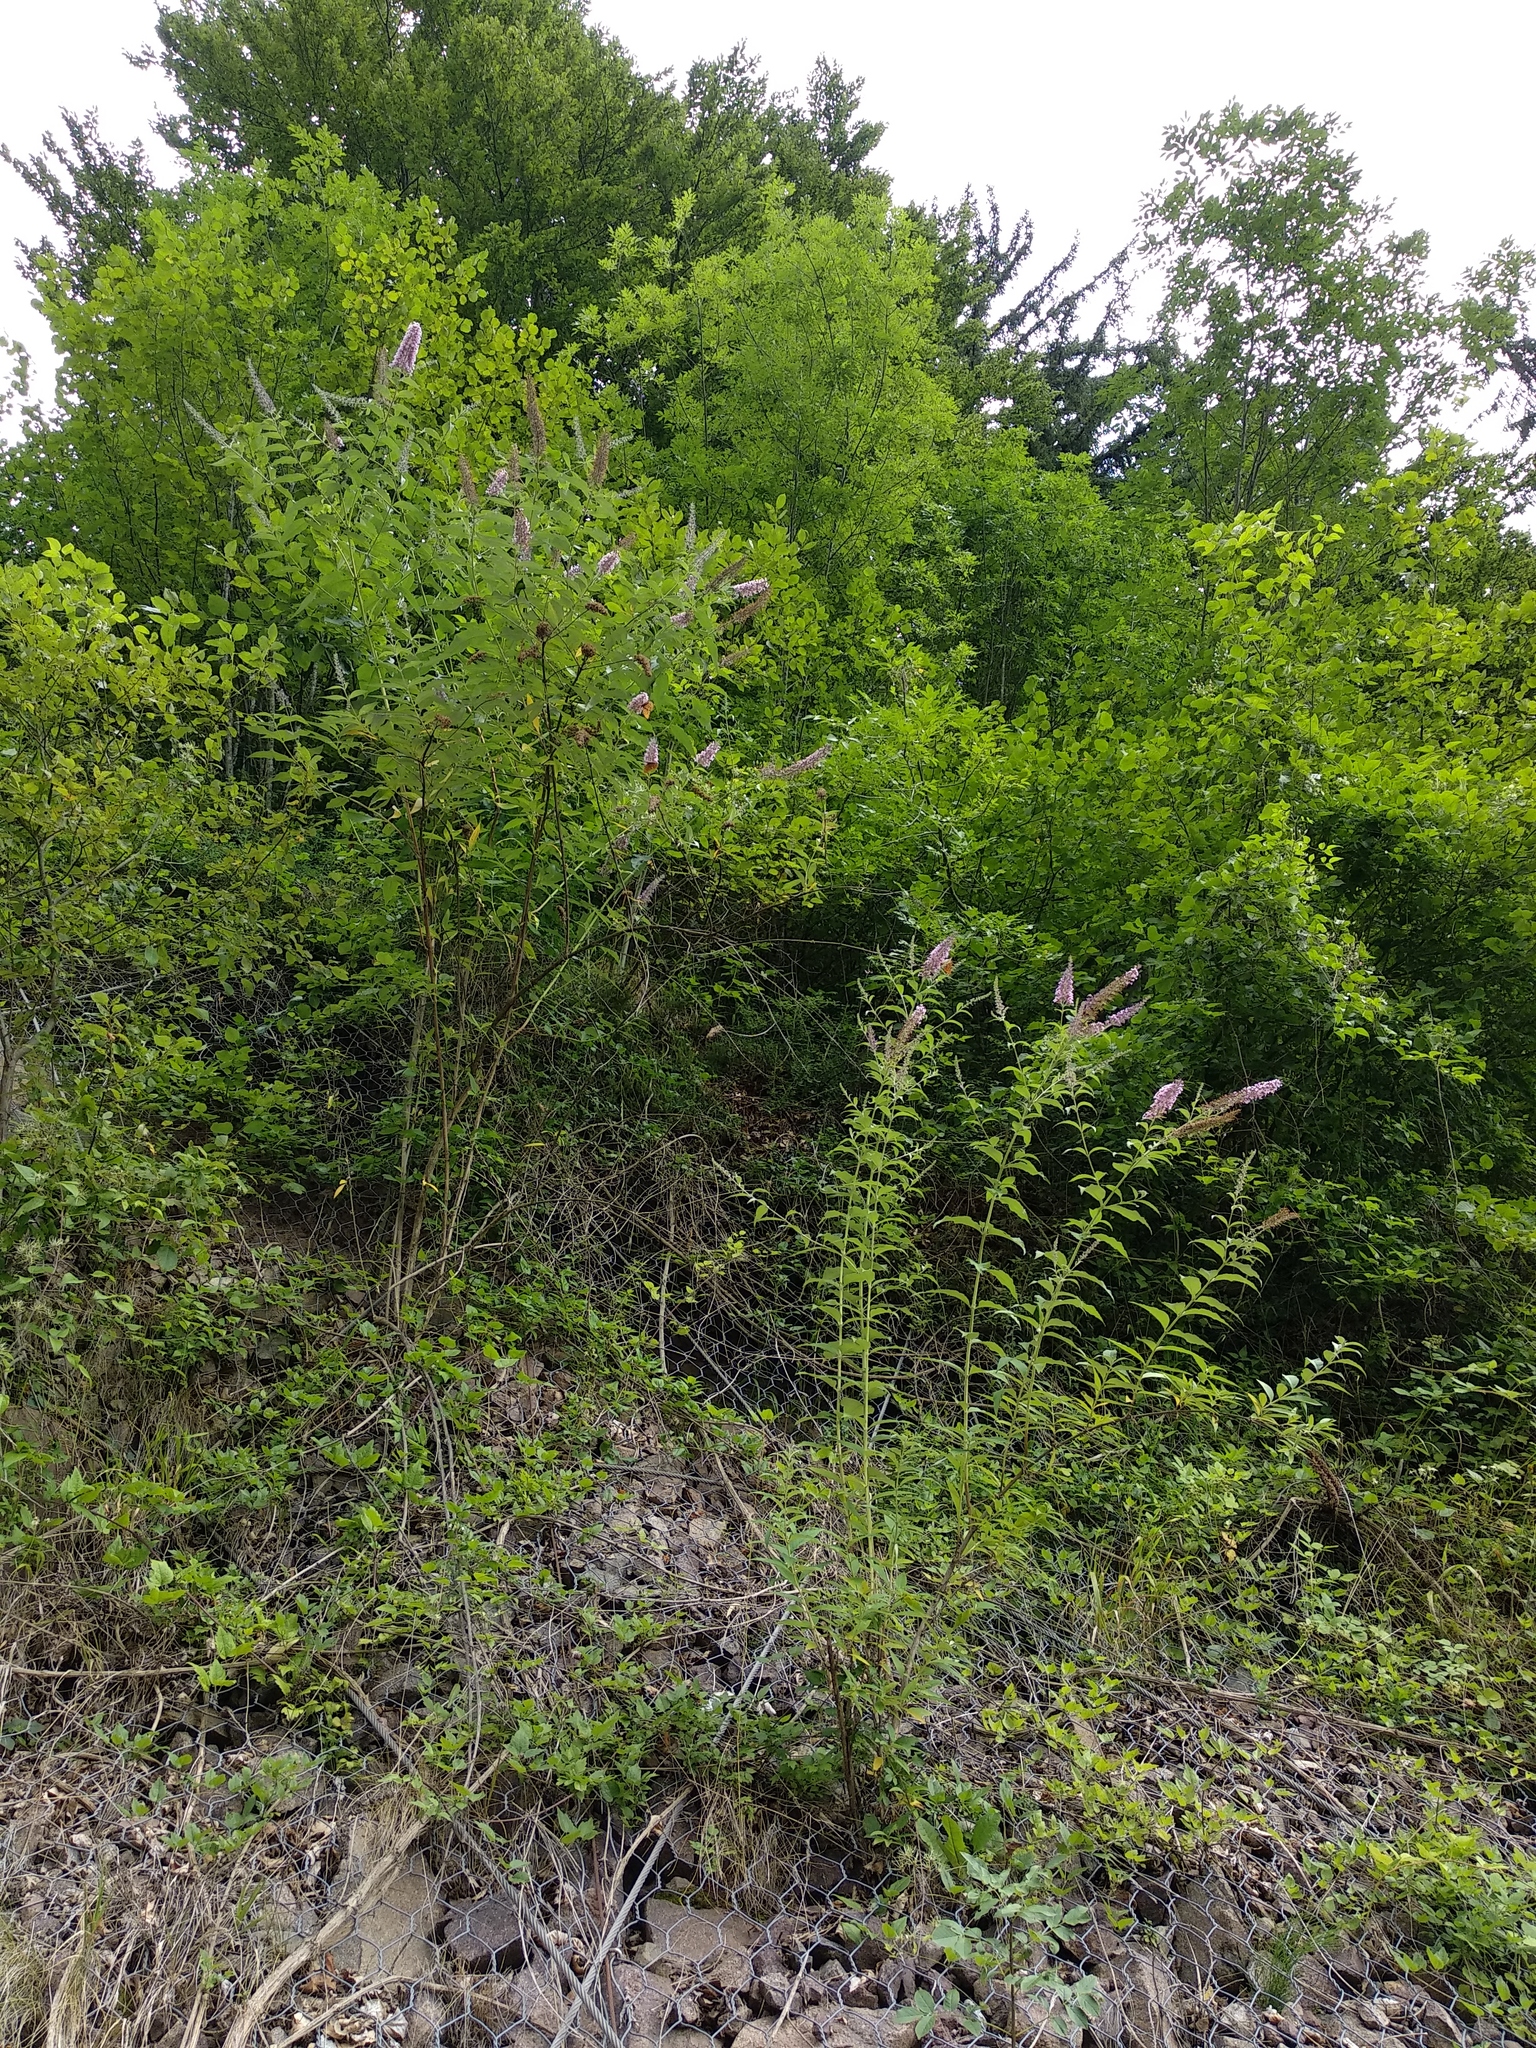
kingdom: Plantae
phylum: Tracheophyta
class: Magnoliopsida
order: Lamiales
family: Scrophulariaceae
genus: Buddleja
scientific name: Buddleja davidii
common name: Butterfly-bush
